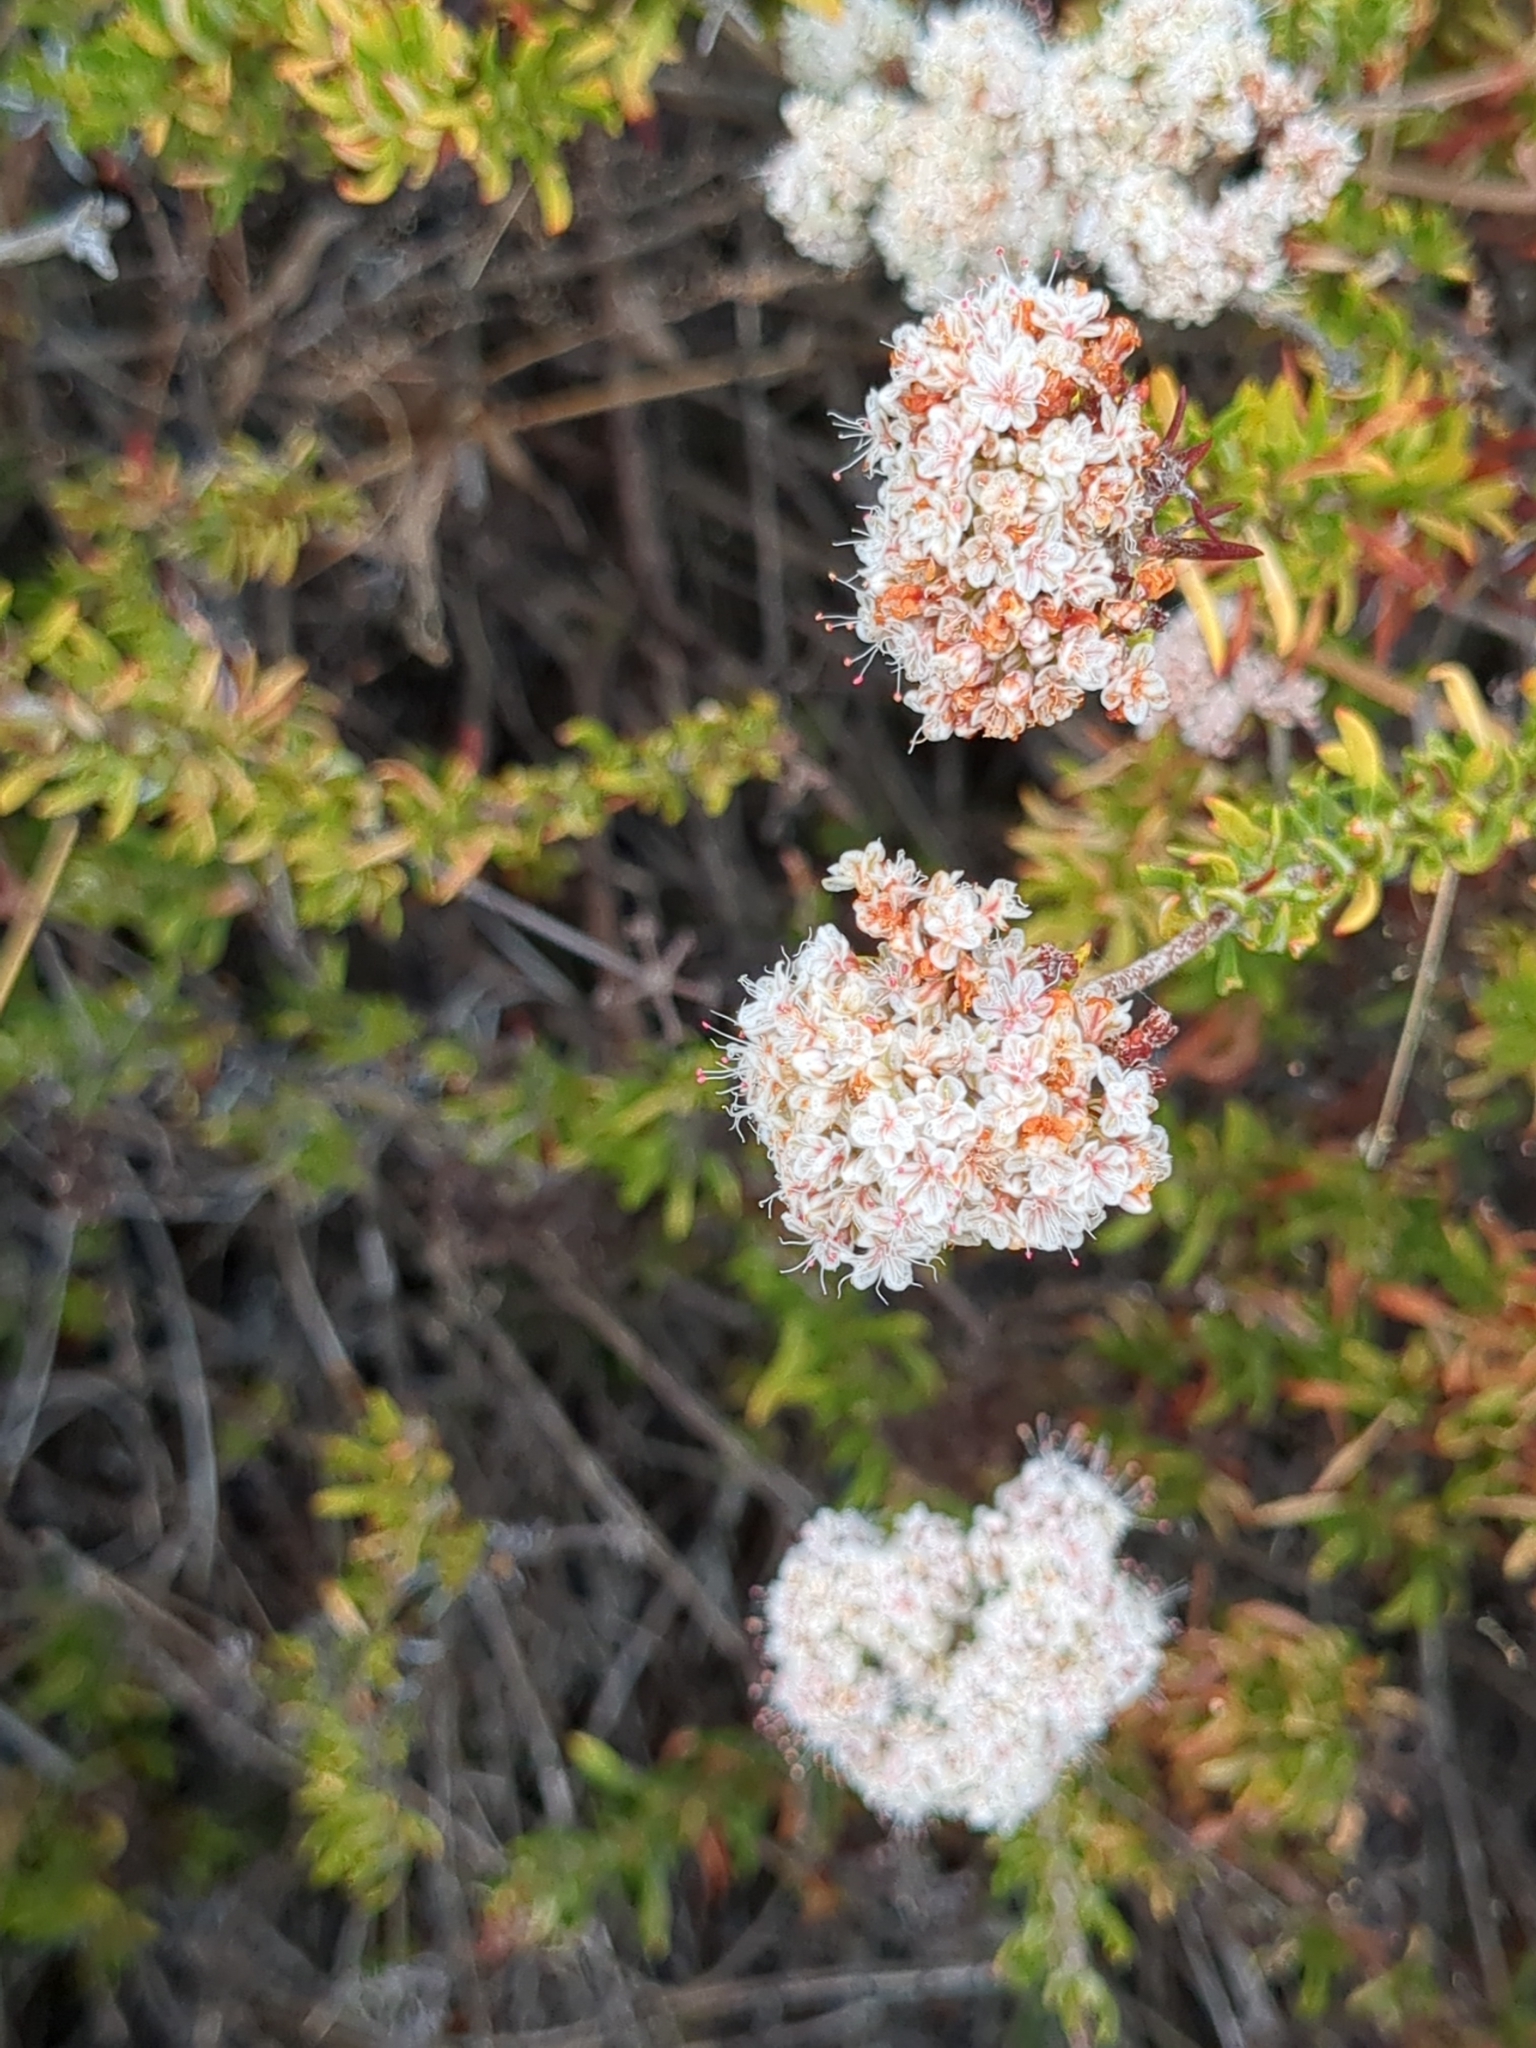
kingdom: Plantae
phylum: Tracheophyta
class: Magnoliopsida
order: Caryophyllales
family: Polygonaceae
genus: Eriogonum
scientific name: Eriogonum fasciculatum
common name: California wild buckwheat
